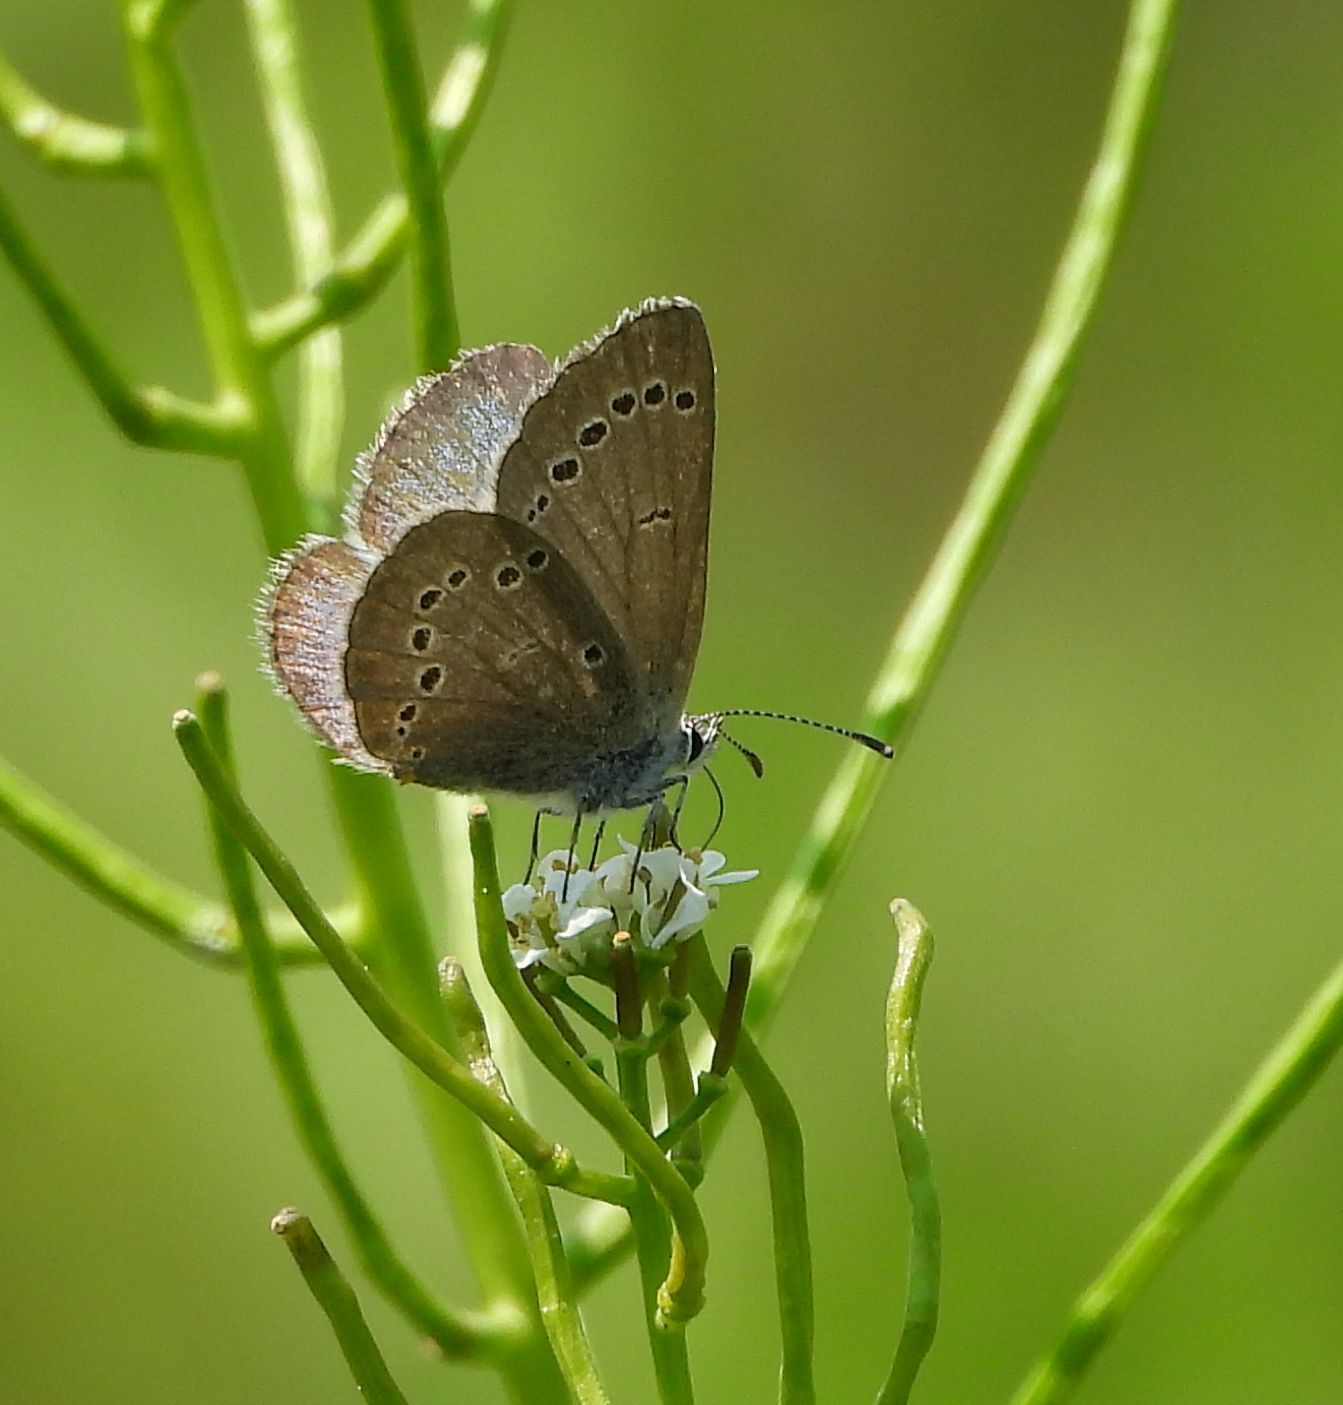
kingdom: Animalia
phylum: Arthropoda
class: Insecta
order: Lepidoptera
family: Lycaenidae
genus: Glaucopsyche
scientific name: Glaucopsyche lygdamus
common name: Silvery blue
